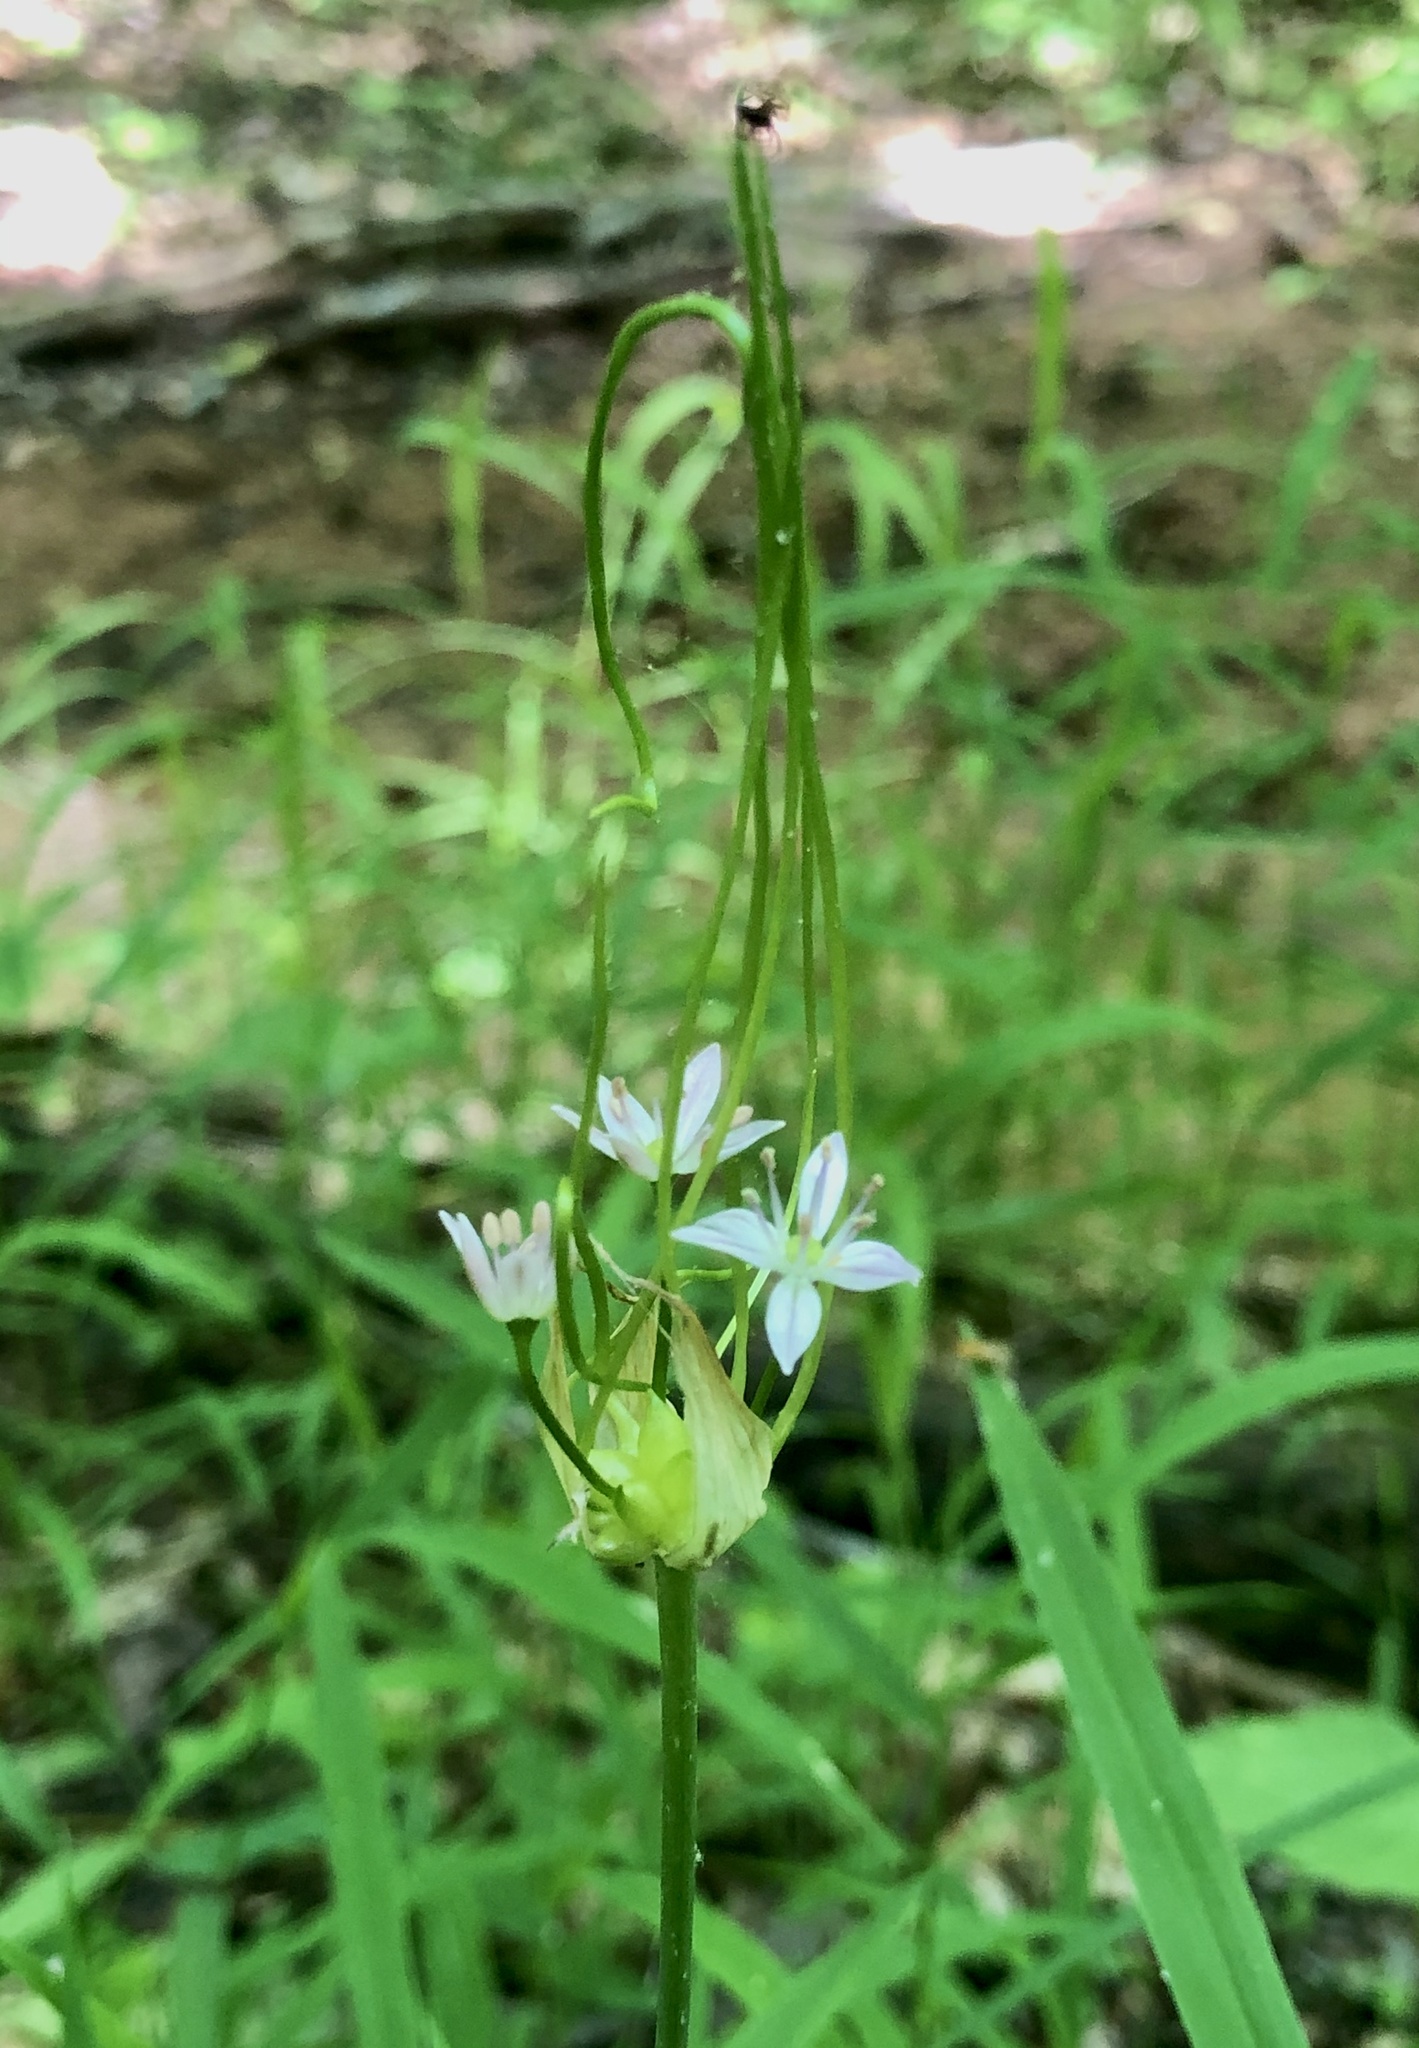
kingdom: Plantae
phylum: Tracheophyta
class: Liliopsida
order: Asparagales
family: Amaryllidaceae
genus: Allium
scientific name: Allium canadense
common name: Meadow garlic
